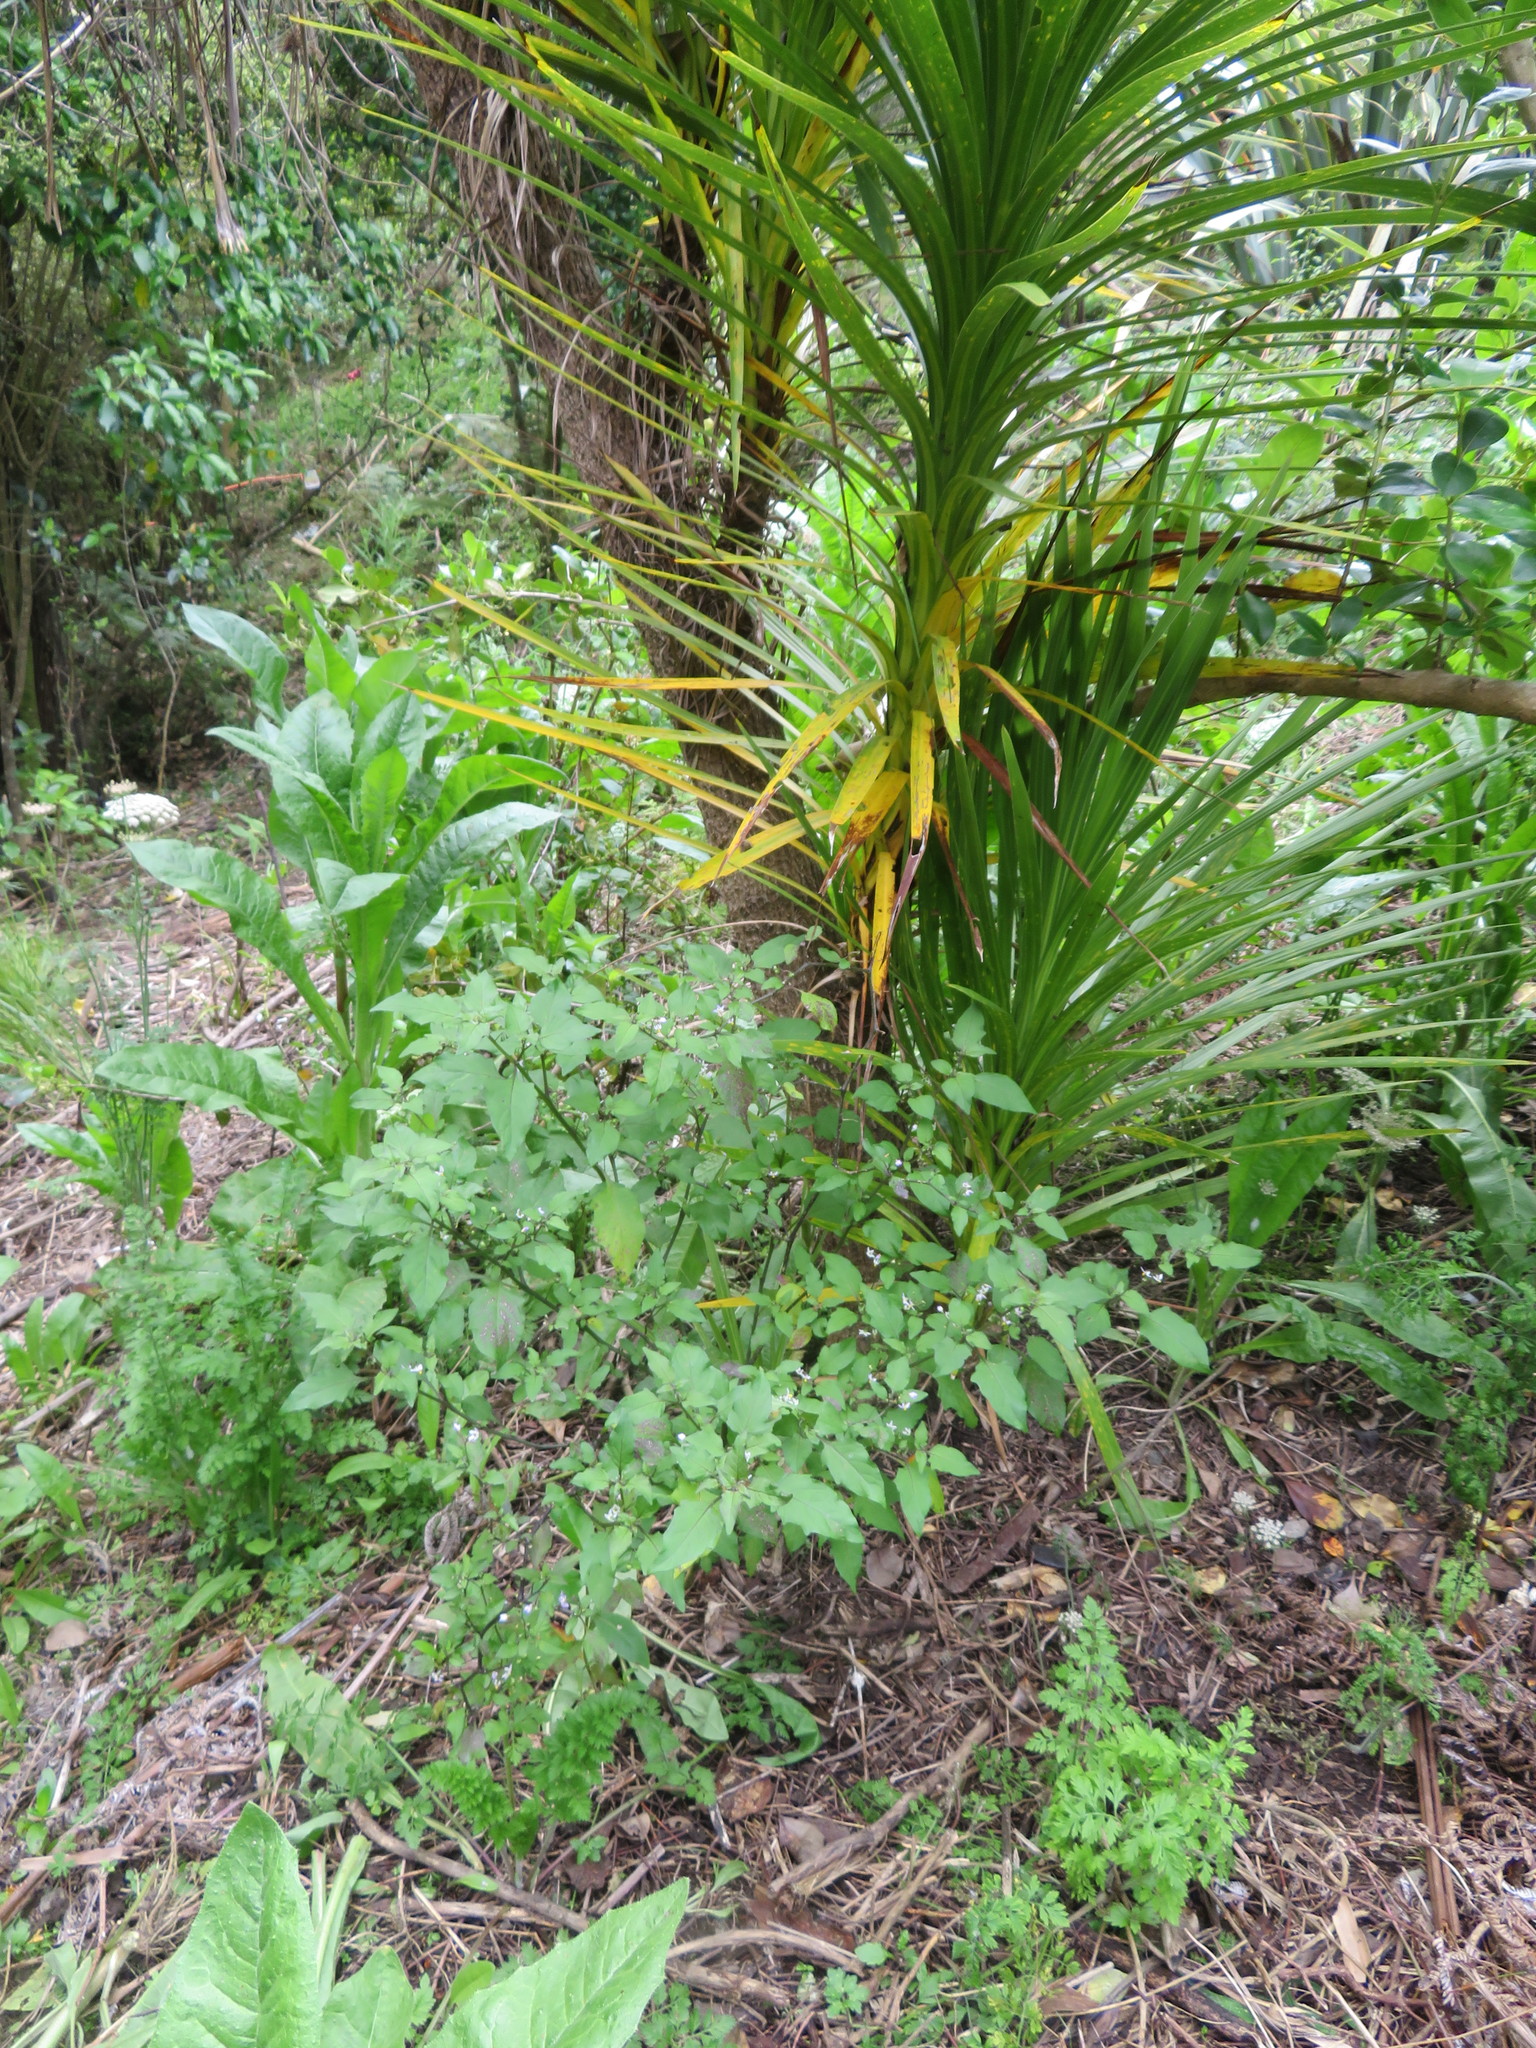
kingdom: Plantae
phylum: Tracheophyta
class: Magnoliopsida
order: Solanales
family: Solanaceae
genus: Solanum
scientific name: Solanum nigrum
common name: Black nightshade
